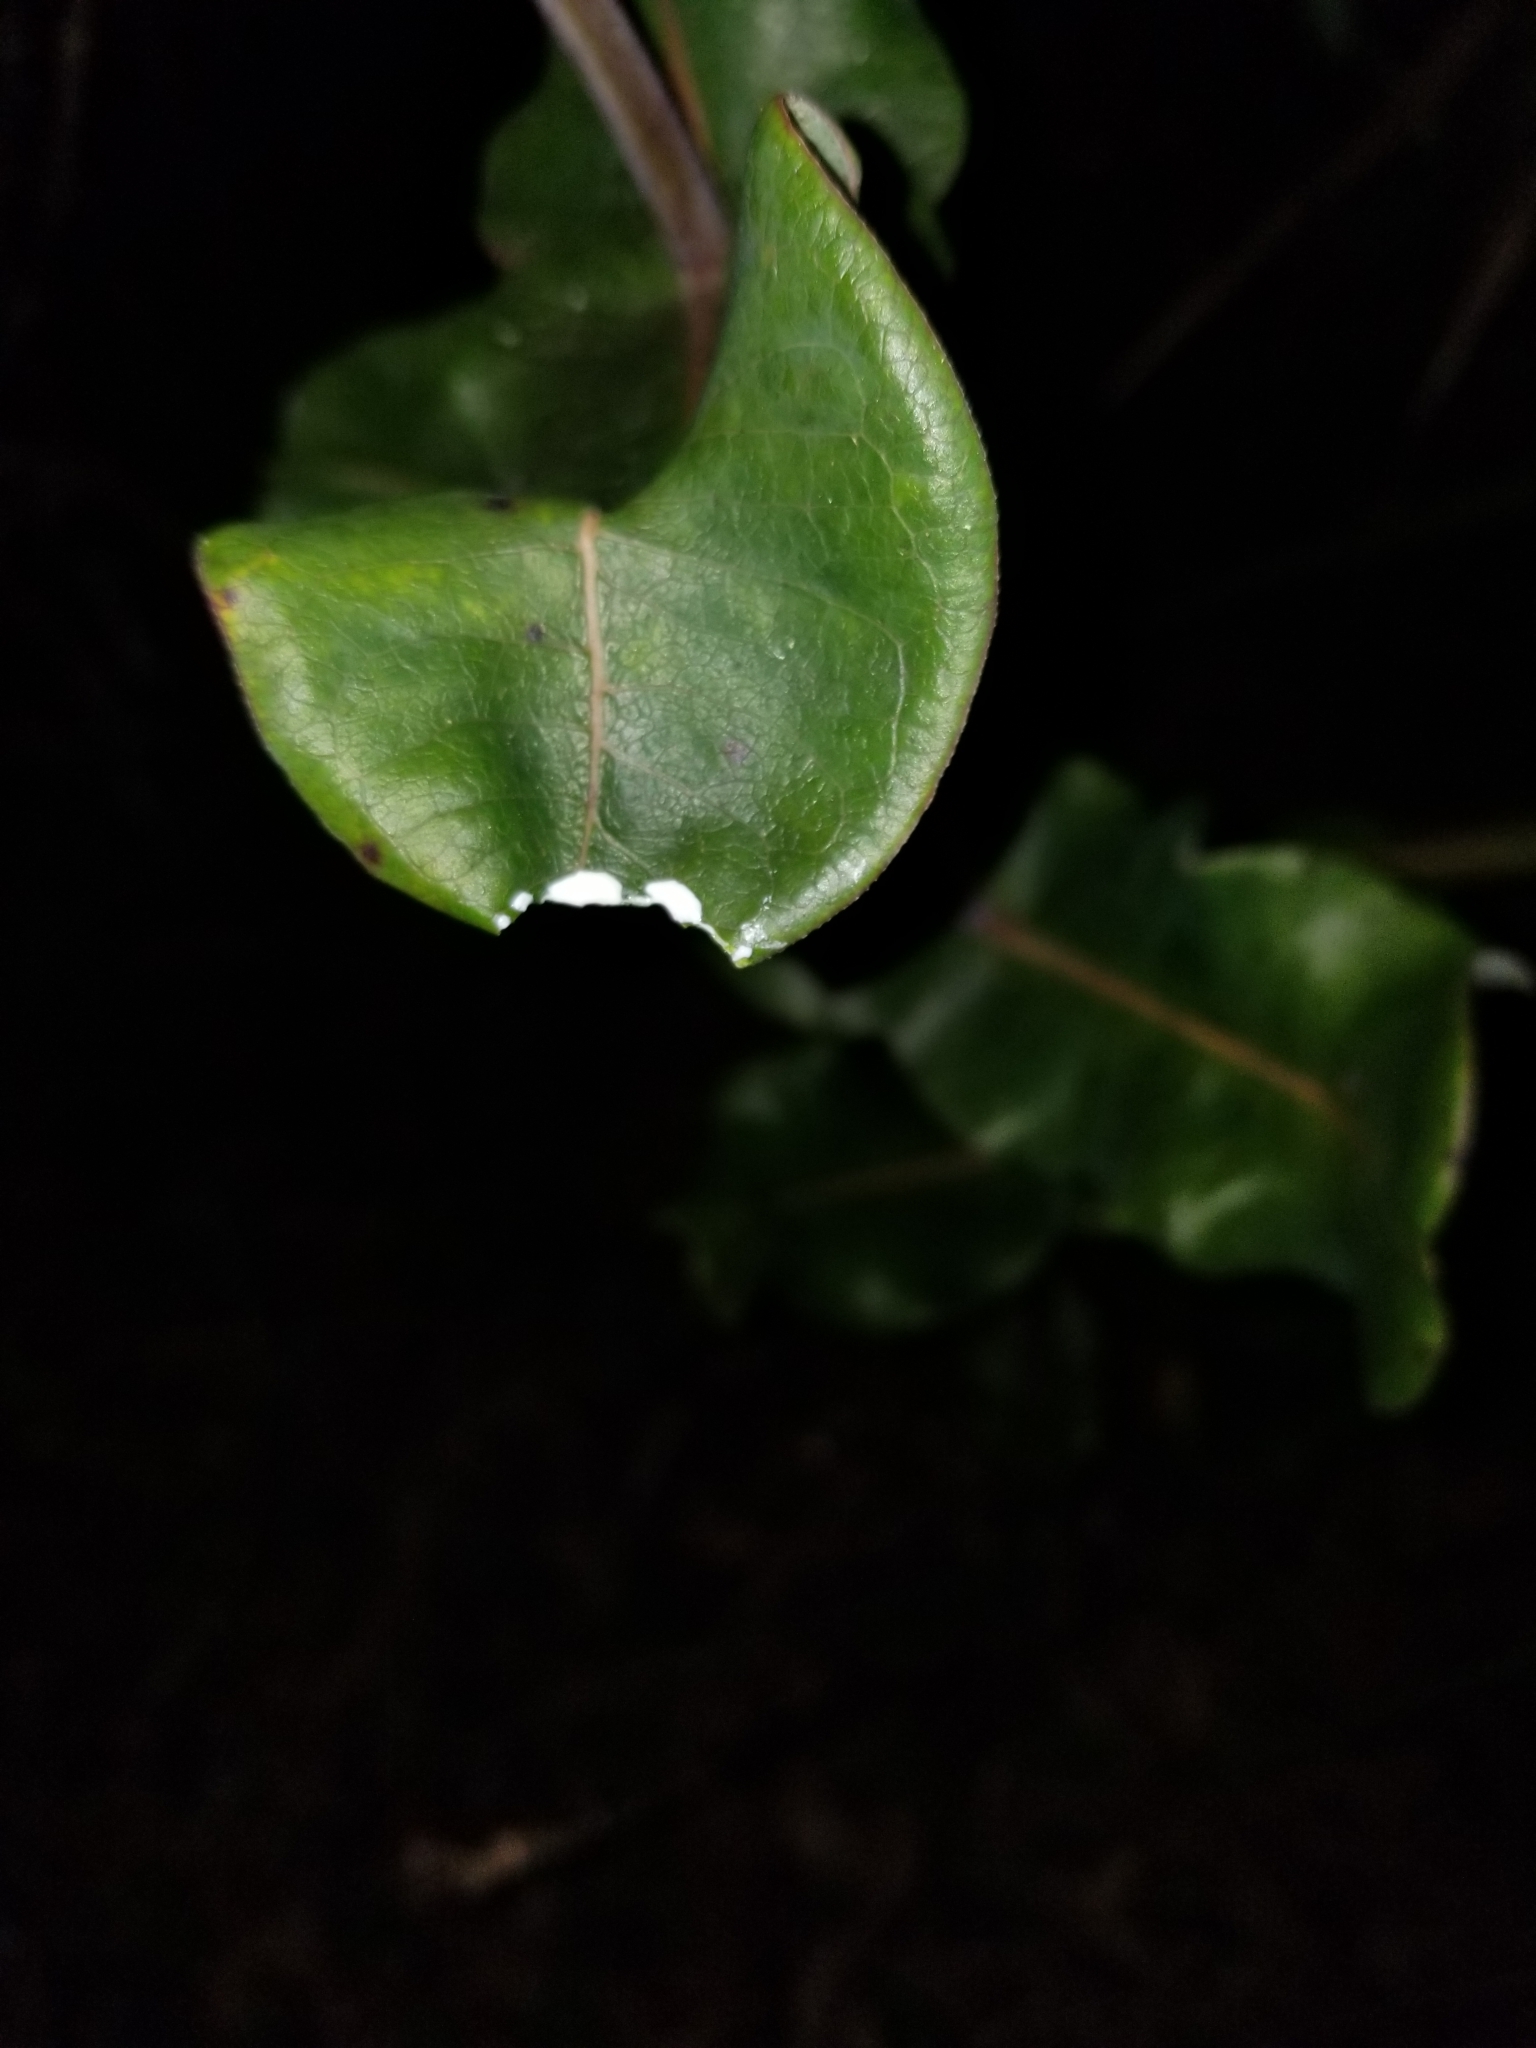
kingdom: Plantae
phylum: Tracheophyta
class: Magnoliopsida
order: Gentianales
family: Apocynaceae
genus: Asclepias
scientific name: Asclepias amplexicaulis
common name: Blunt-leaf milkweed
